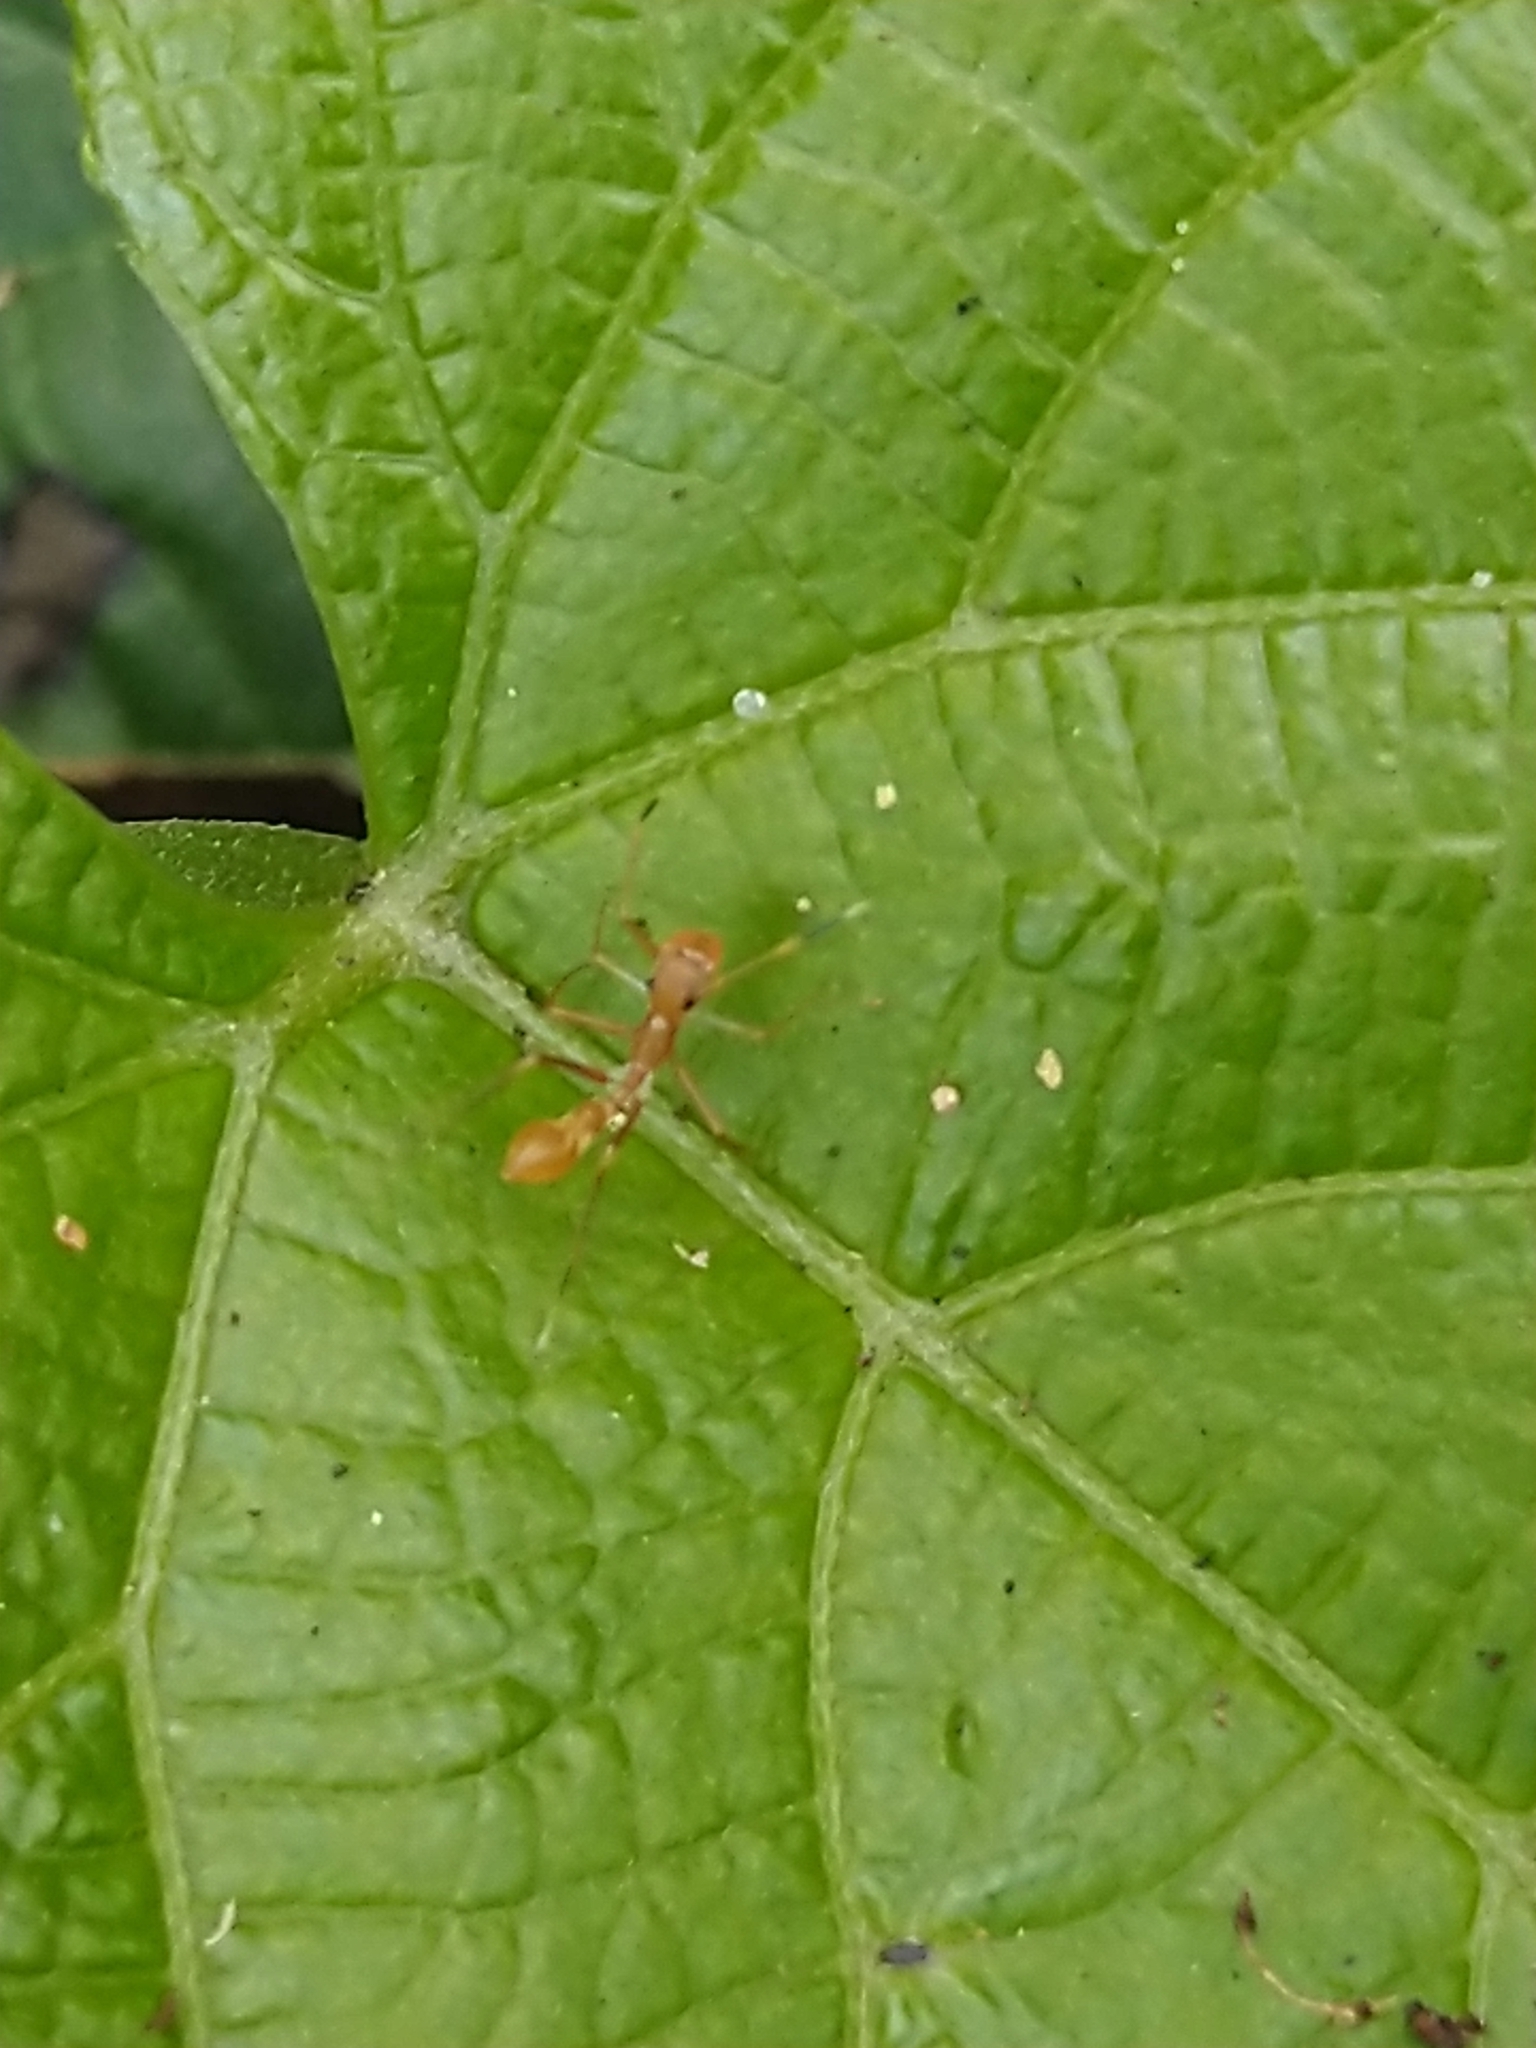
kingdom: Animalia
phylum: Arthropoda
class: Arachnida
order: Araneae
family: Salticidae
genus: Myrmaplata
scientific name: Myrmaplata plataleoides
